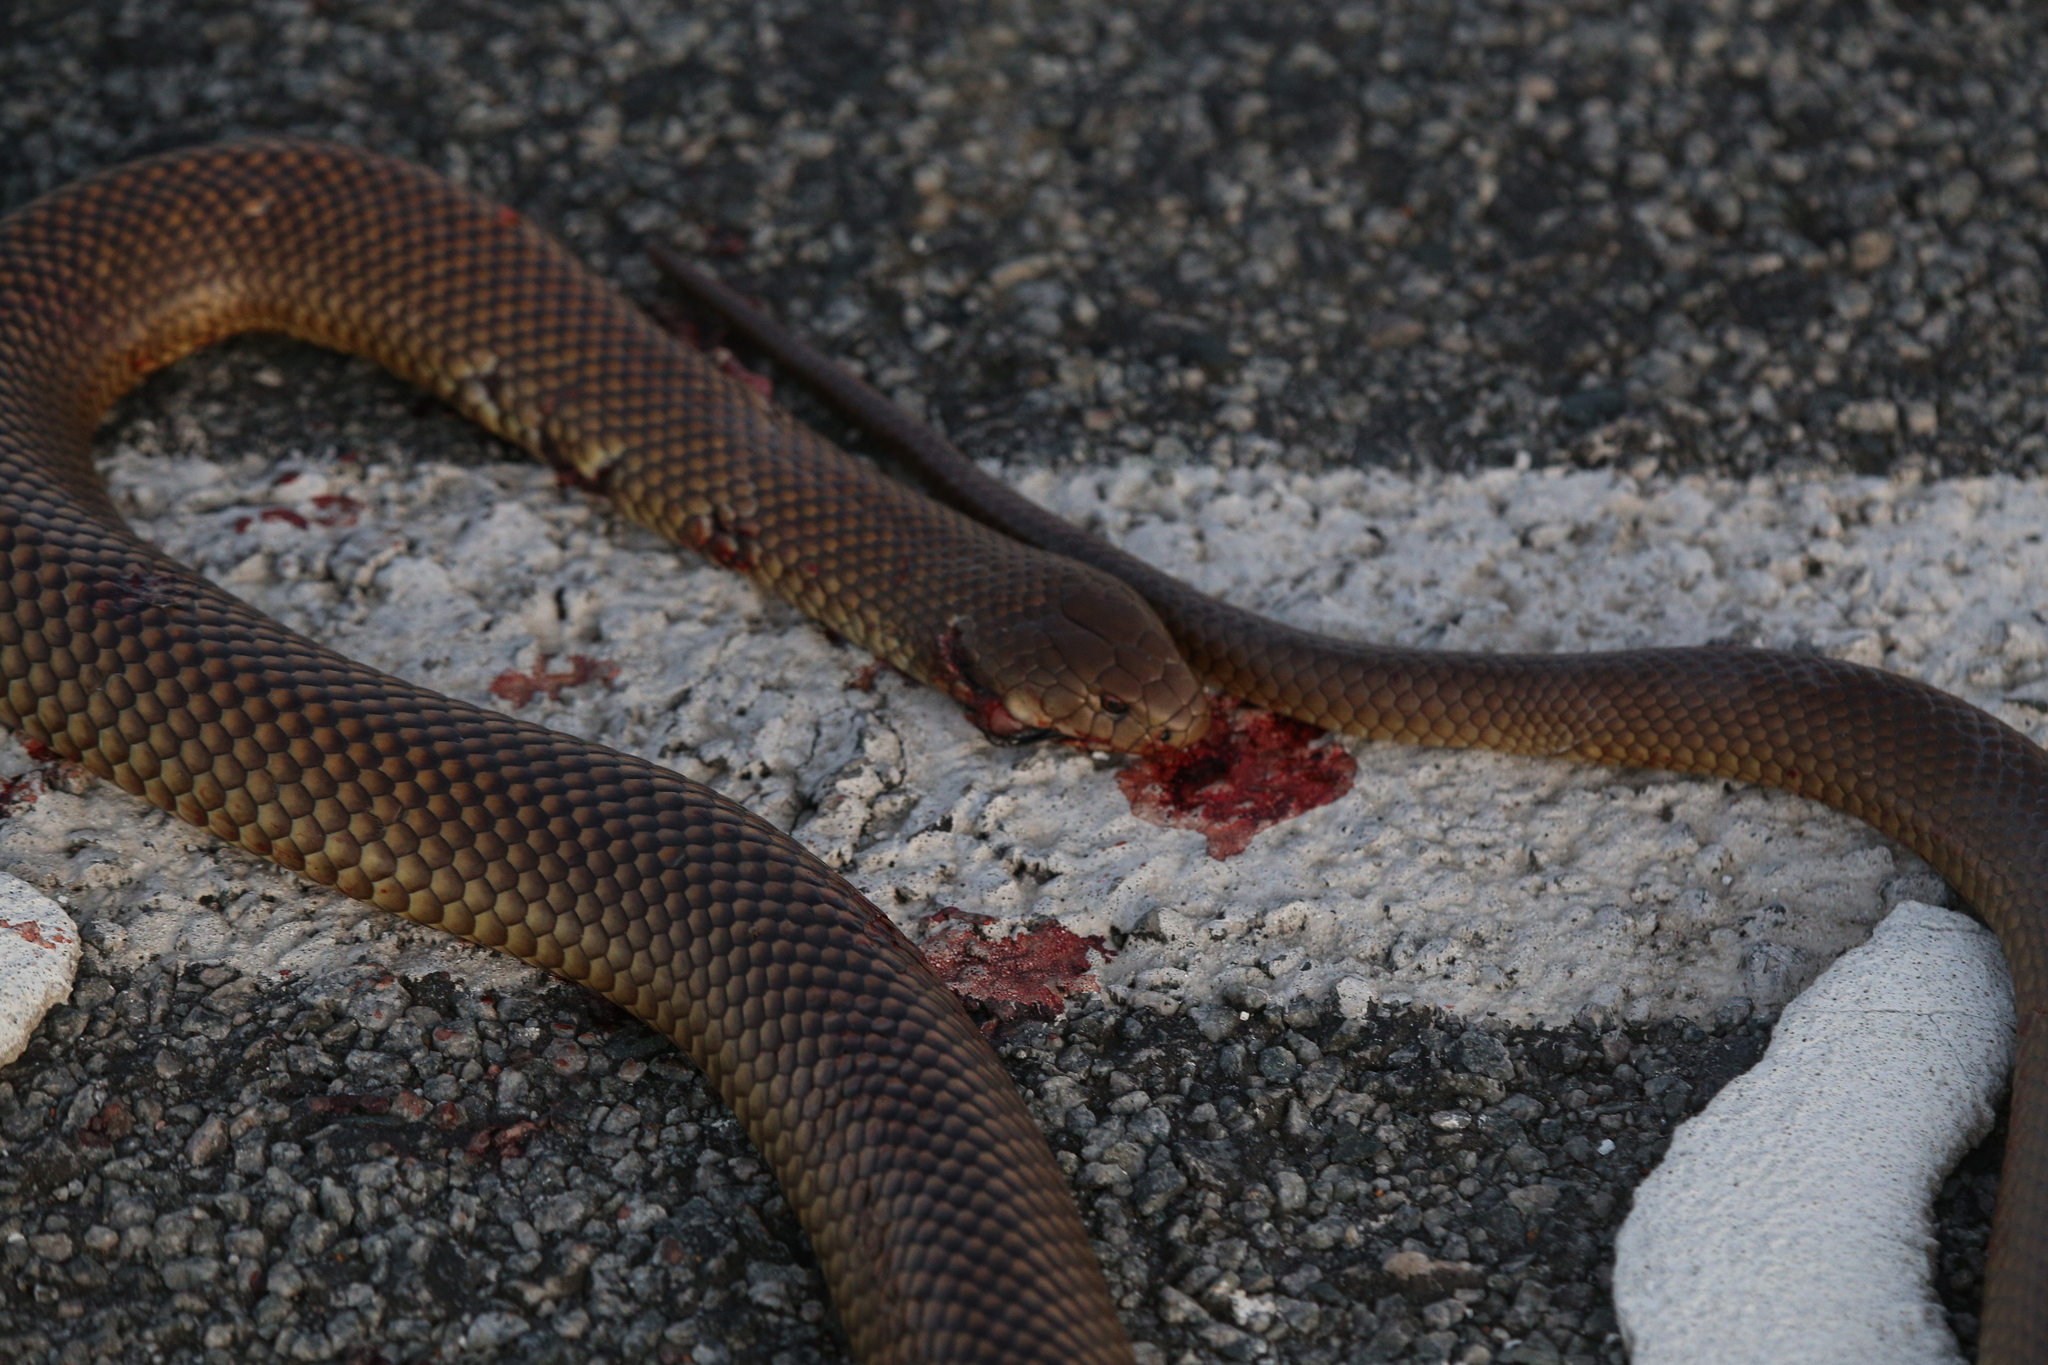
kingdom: Animalia
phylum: Chordata
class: Squamata
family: Elapidae
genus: Pseudechis
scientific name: Pseudechis australis
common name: King brown snake
